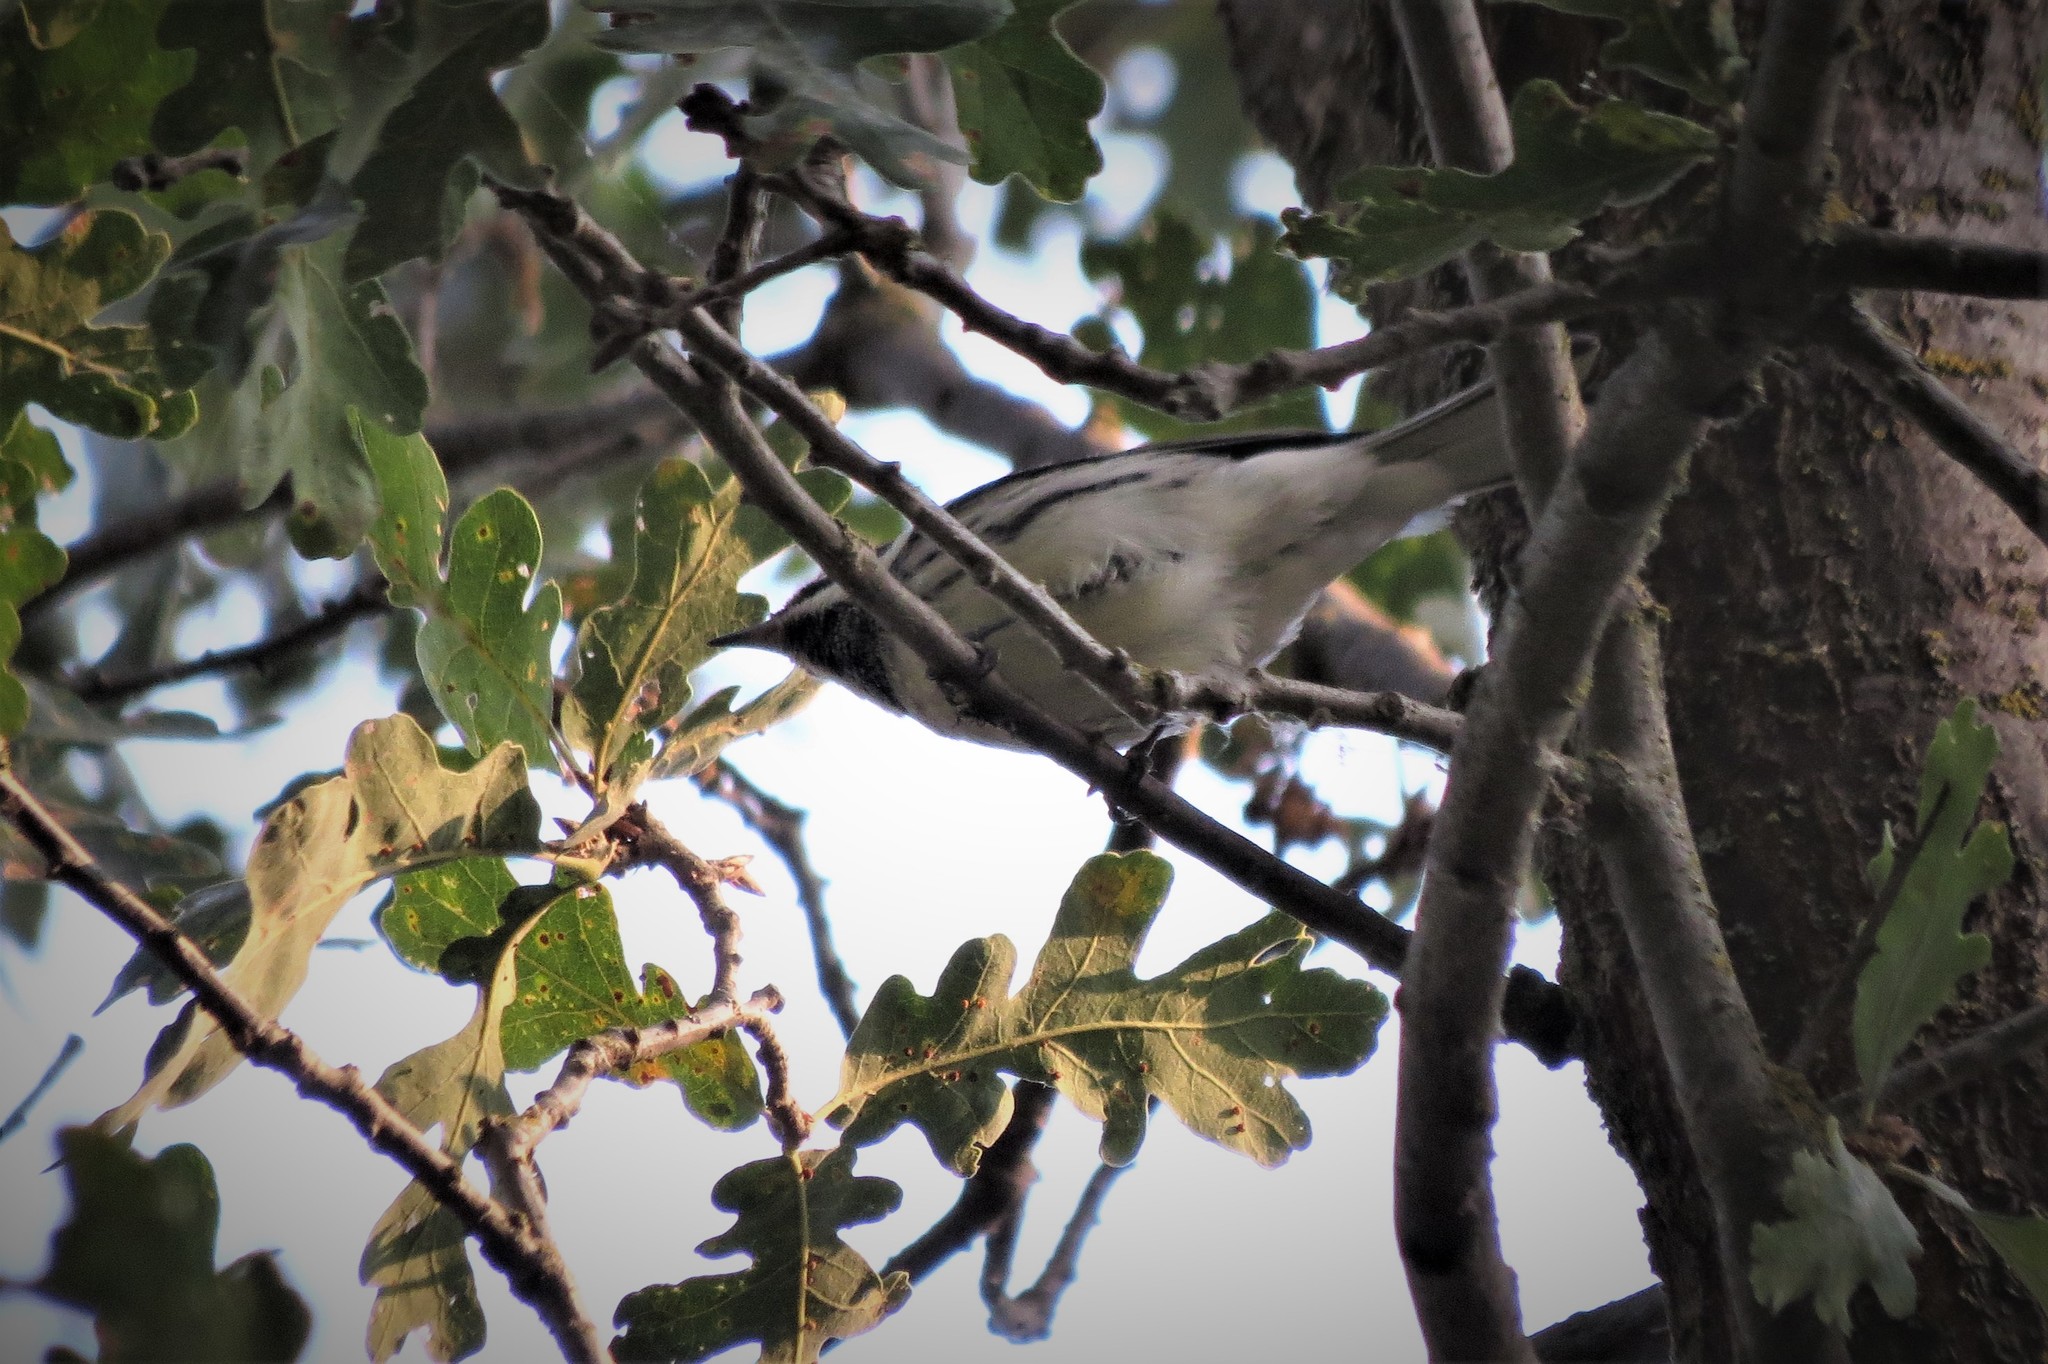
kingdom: Animalia
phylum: Chordata
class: Aves
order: Passeriformes
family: Parulidae
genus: Setophaga
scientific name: Setophaga nigrescens
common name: Black-throated gray warbler
